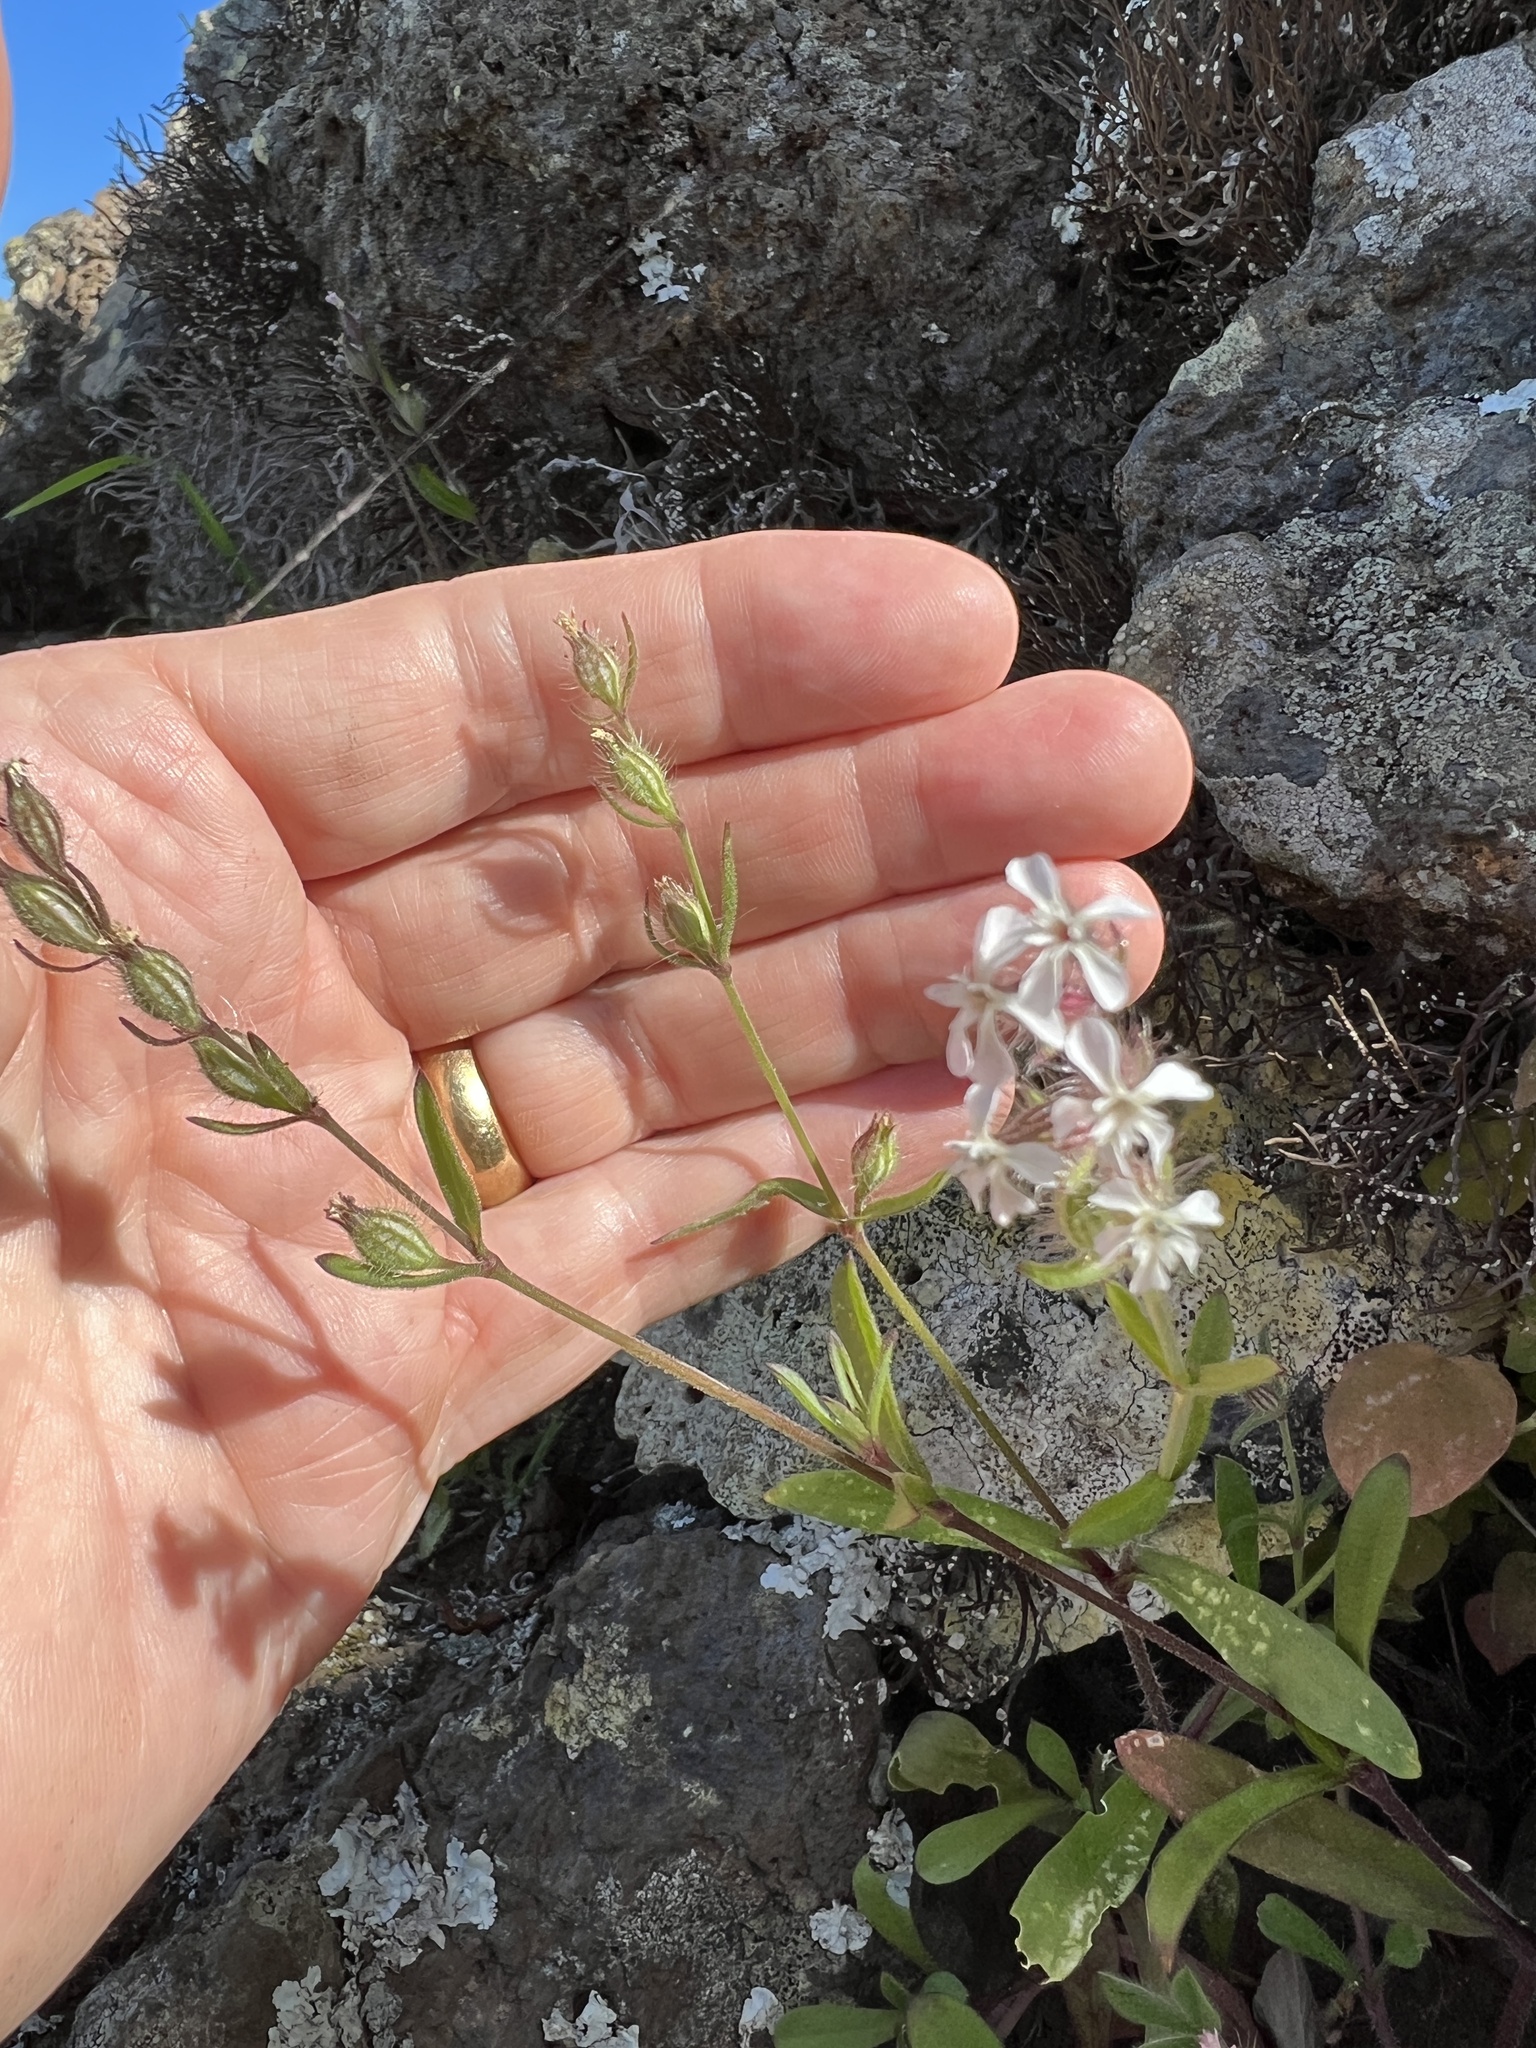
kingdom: Plantae
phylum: Tracheophyta
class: Magnoliopsida
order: Caryophyllales
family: Caryophyllaceae
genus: Silene
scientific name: Silene gallica
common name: Small-flowered catchfly
